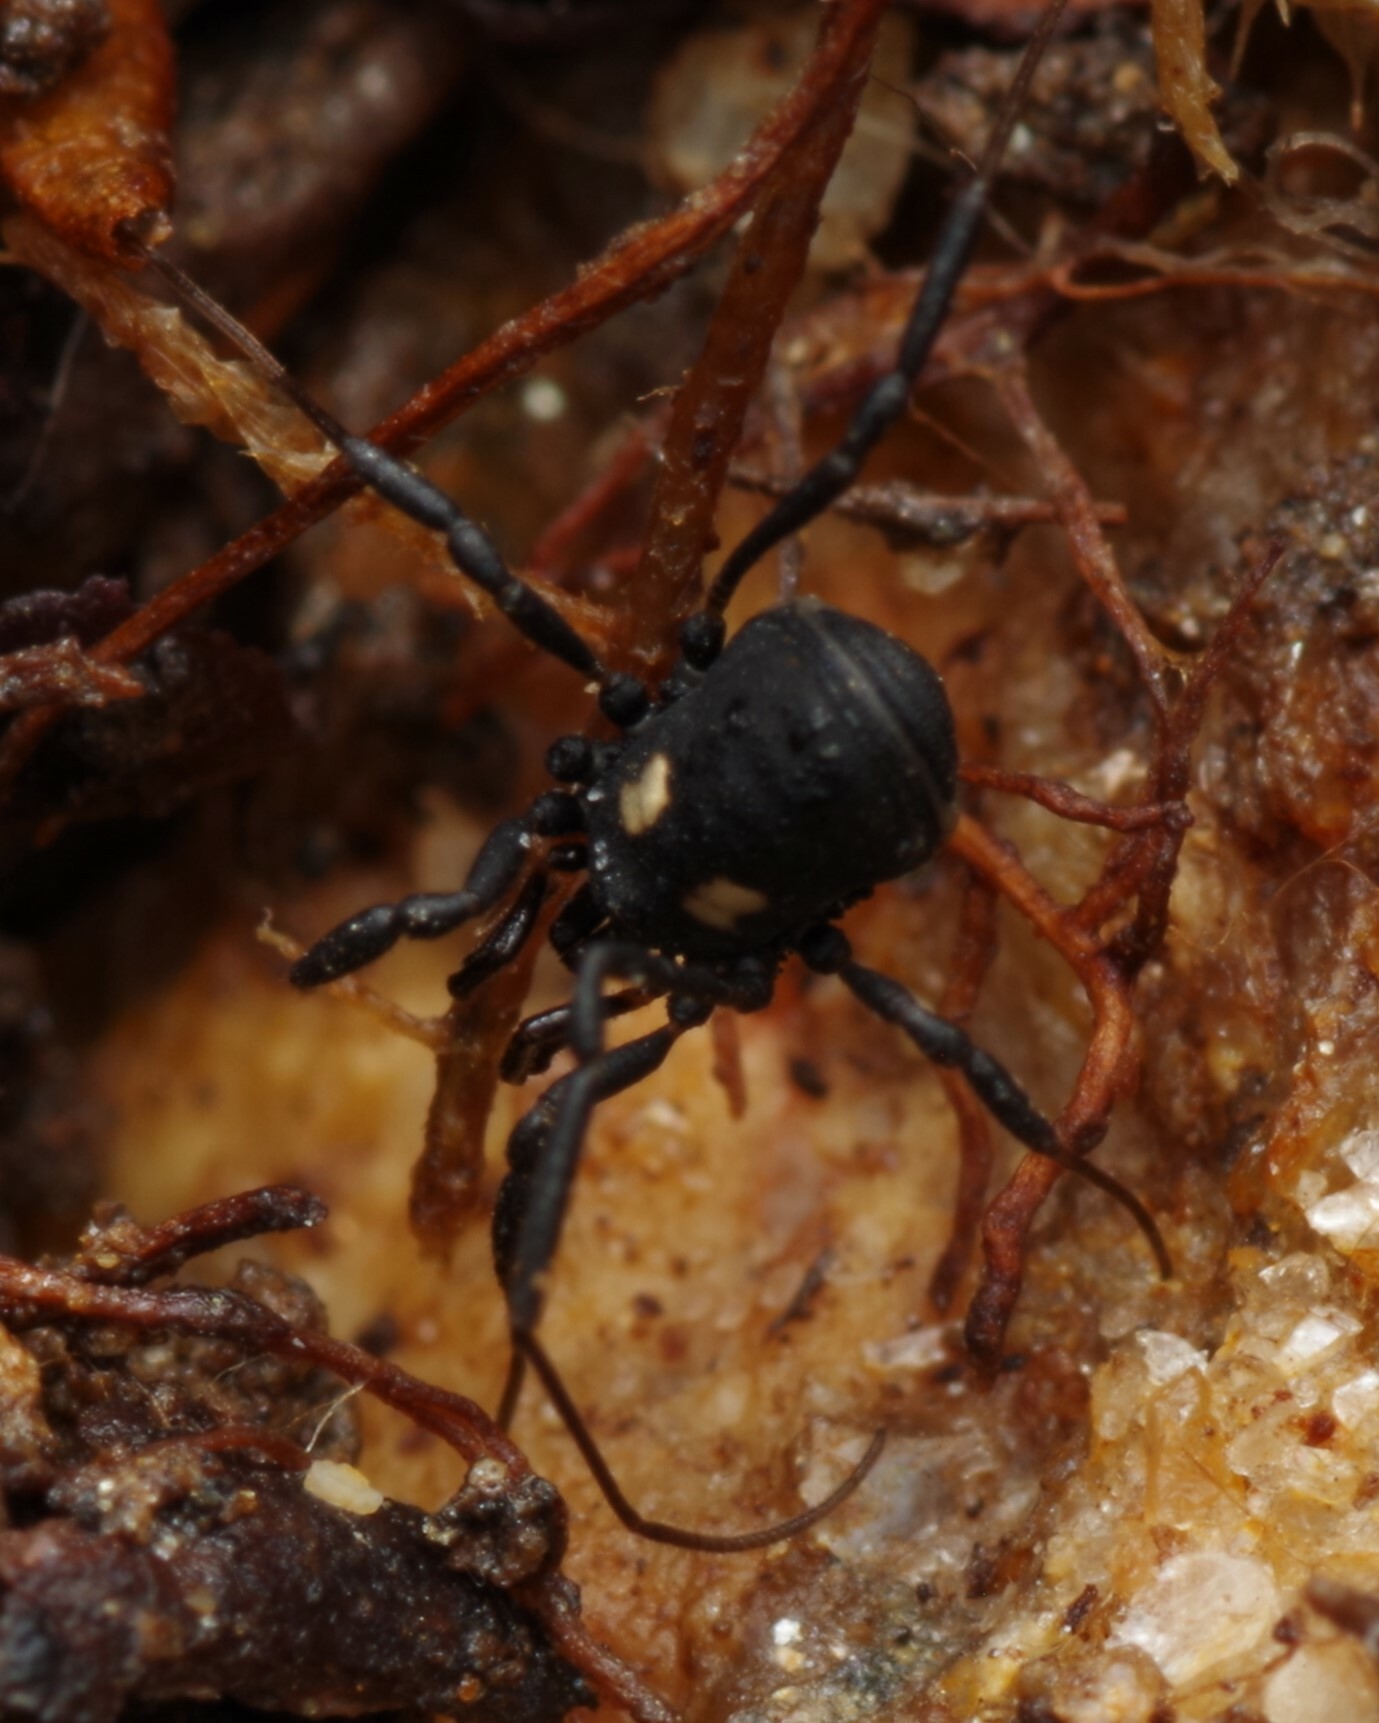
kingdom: Animalia
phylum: Arthropoda
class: Arachnida
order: Opiliones
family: Nemastomatidae
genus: Nemastoma
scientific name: Nemastoma bimaculatum
